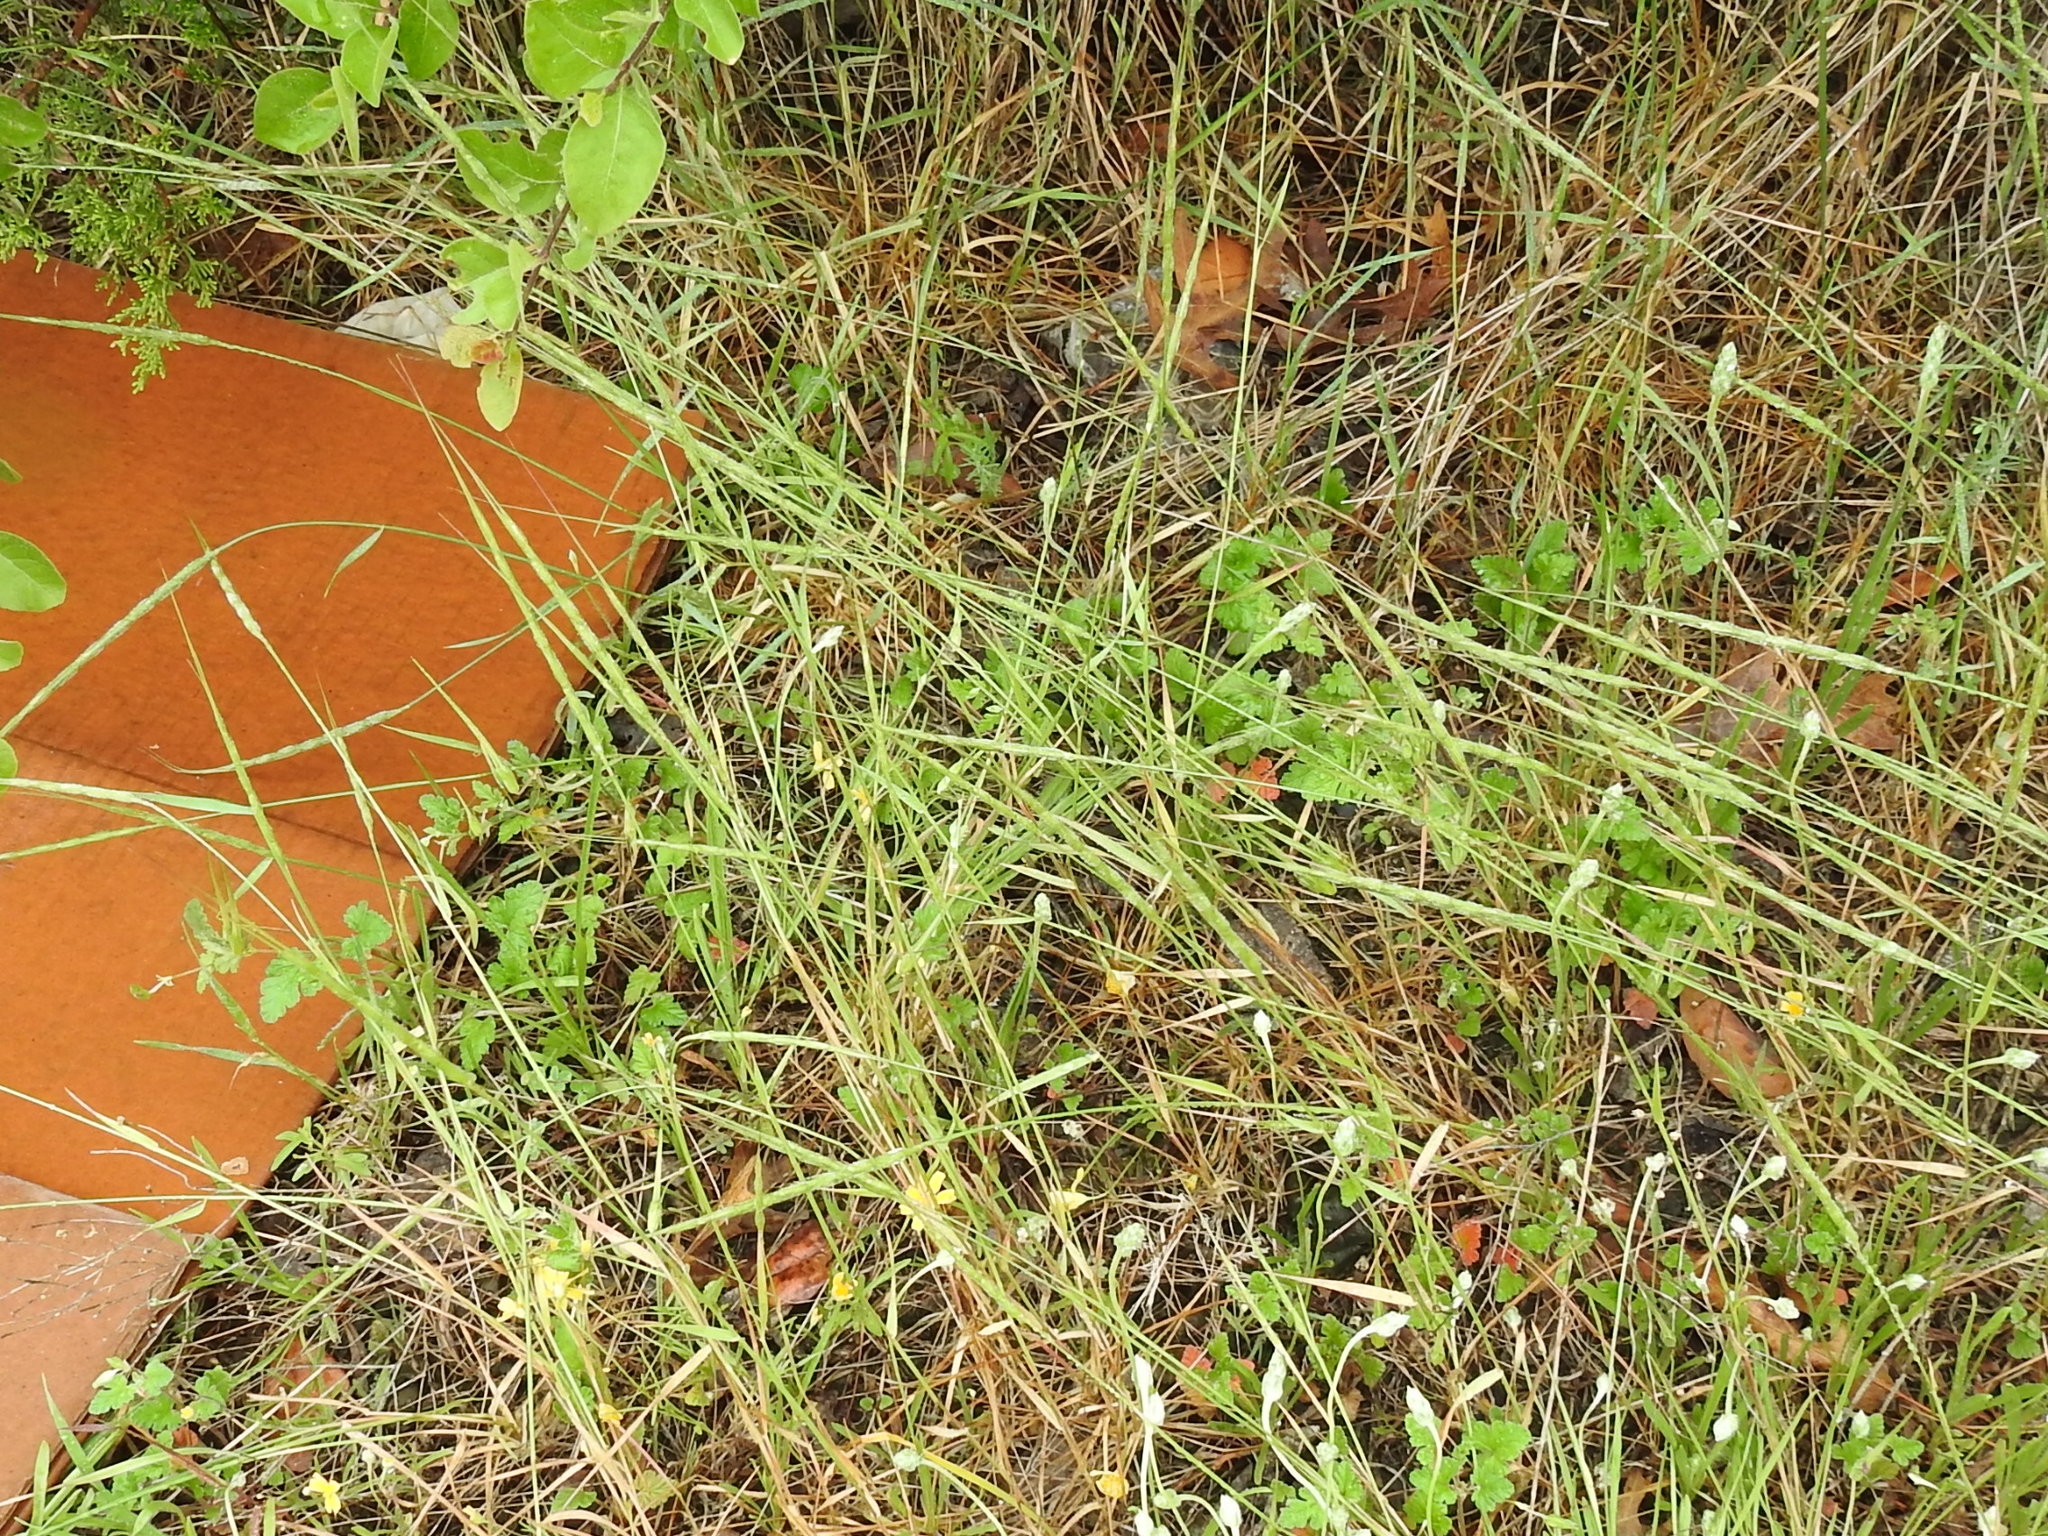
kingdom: Plantae
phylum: Tracheophyta
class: Liliopsida
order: Poales
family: Poaceae
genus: Aegilops
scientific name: Aegilops cylindrica
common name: Jointed goatgrass
